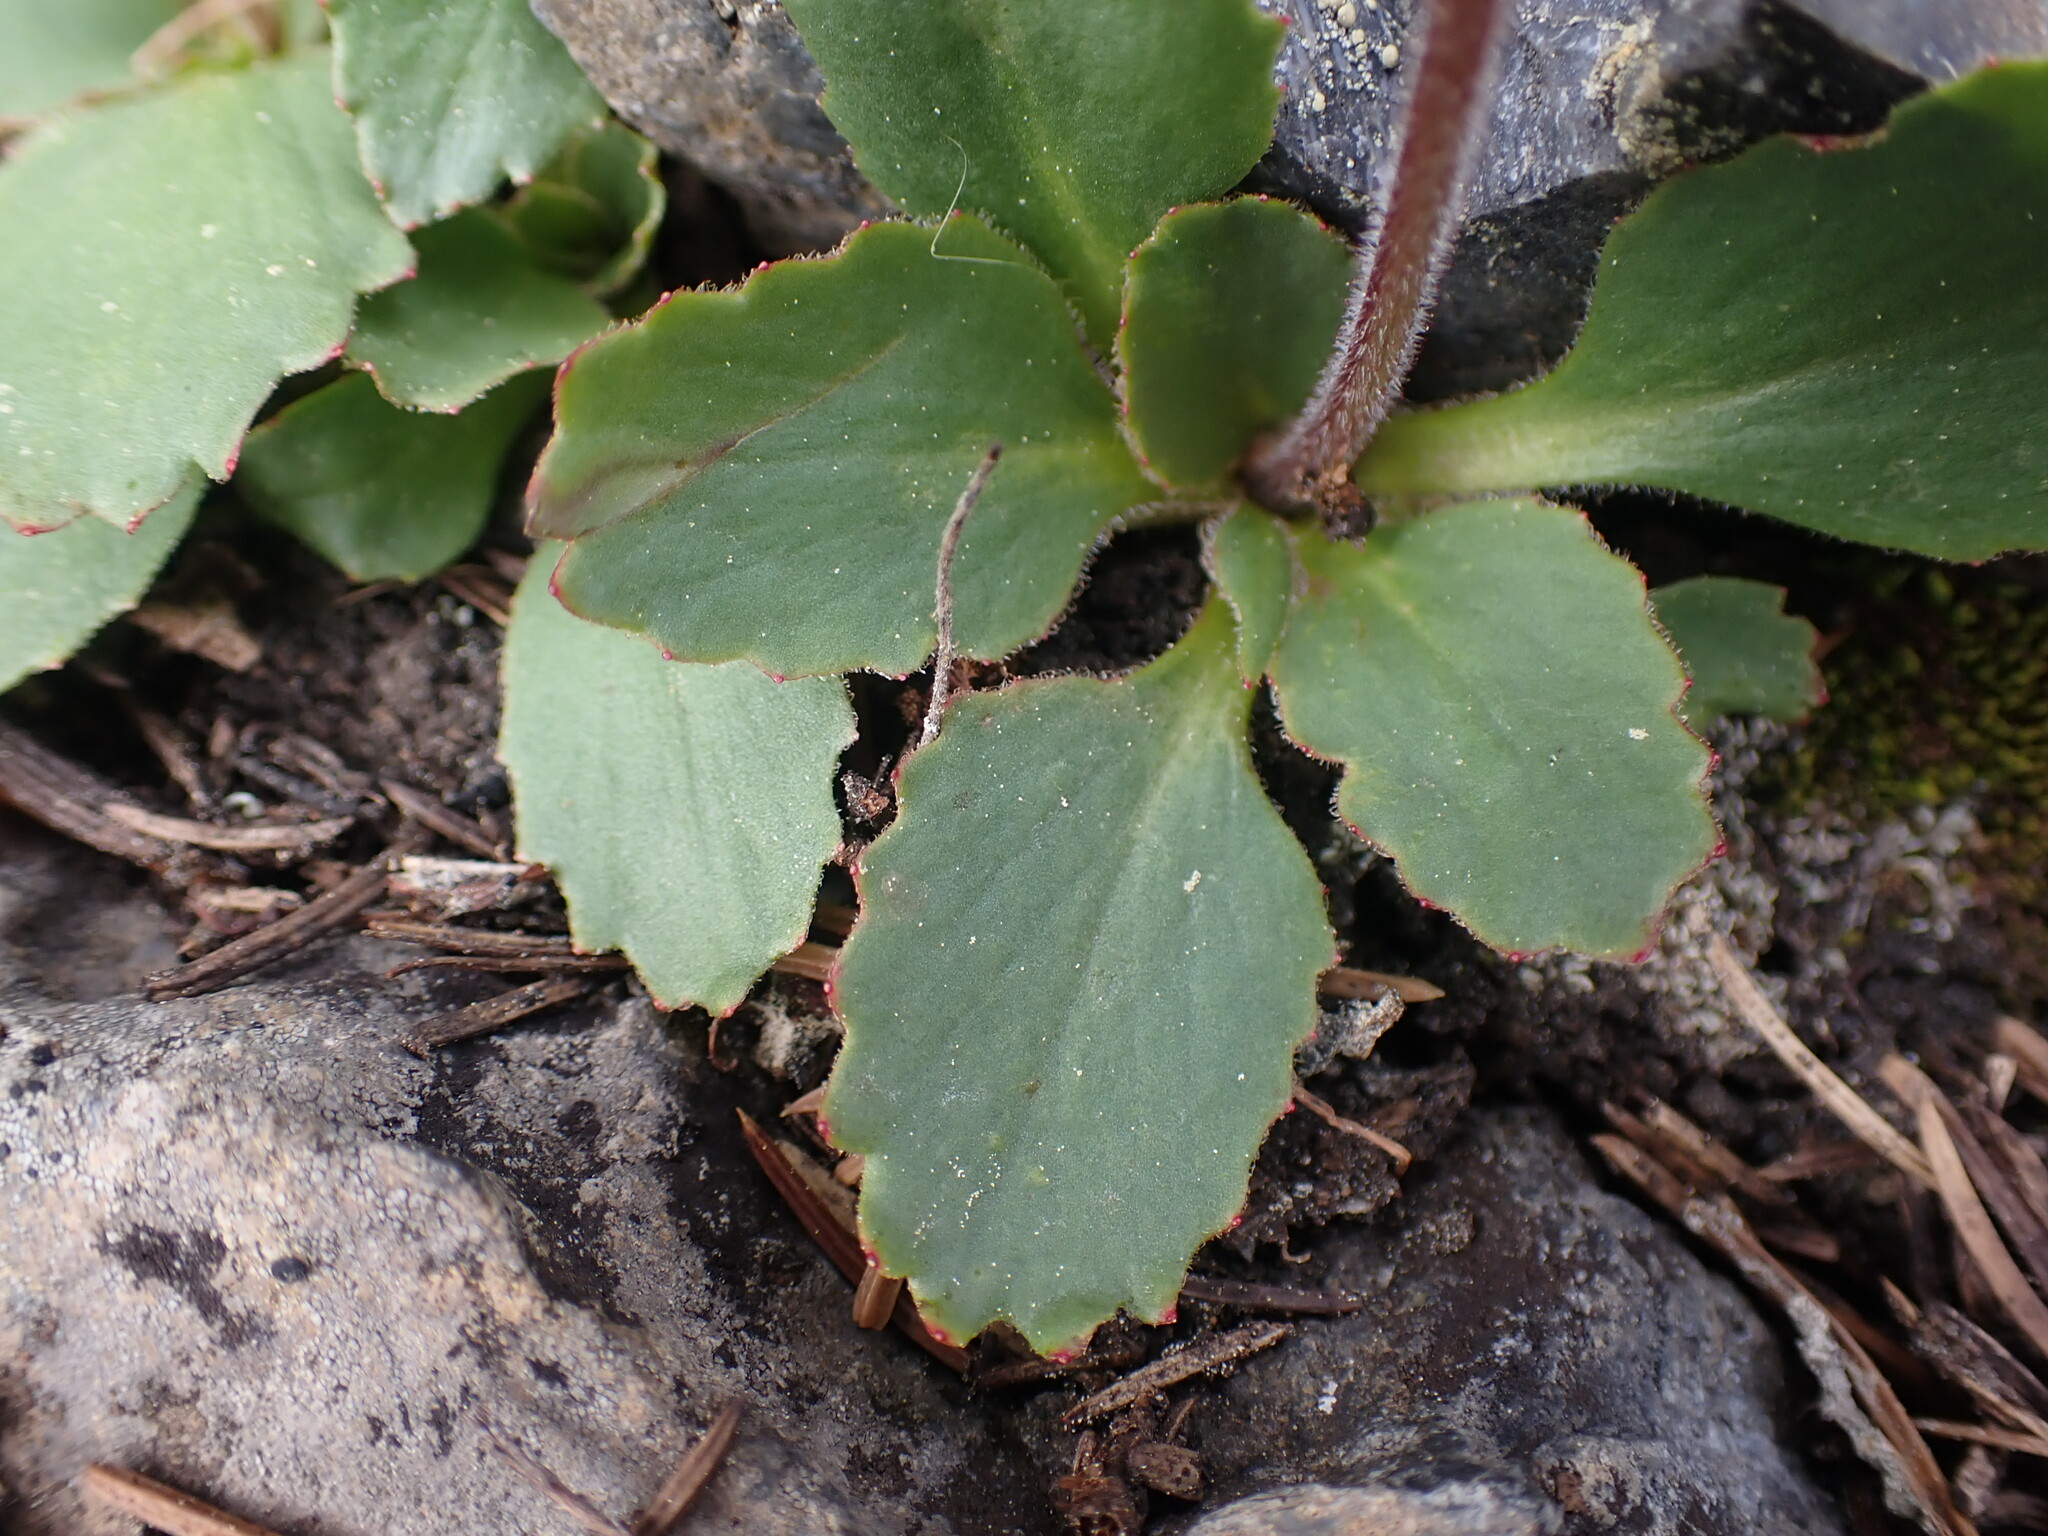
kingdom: Plantae
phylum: Tracheophyta
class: Magnoliopsida
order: Saxifragales
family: Saxifragaceae
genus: Micranthes
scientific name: Micranthes occidentalis
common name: Alberta saxifrage
